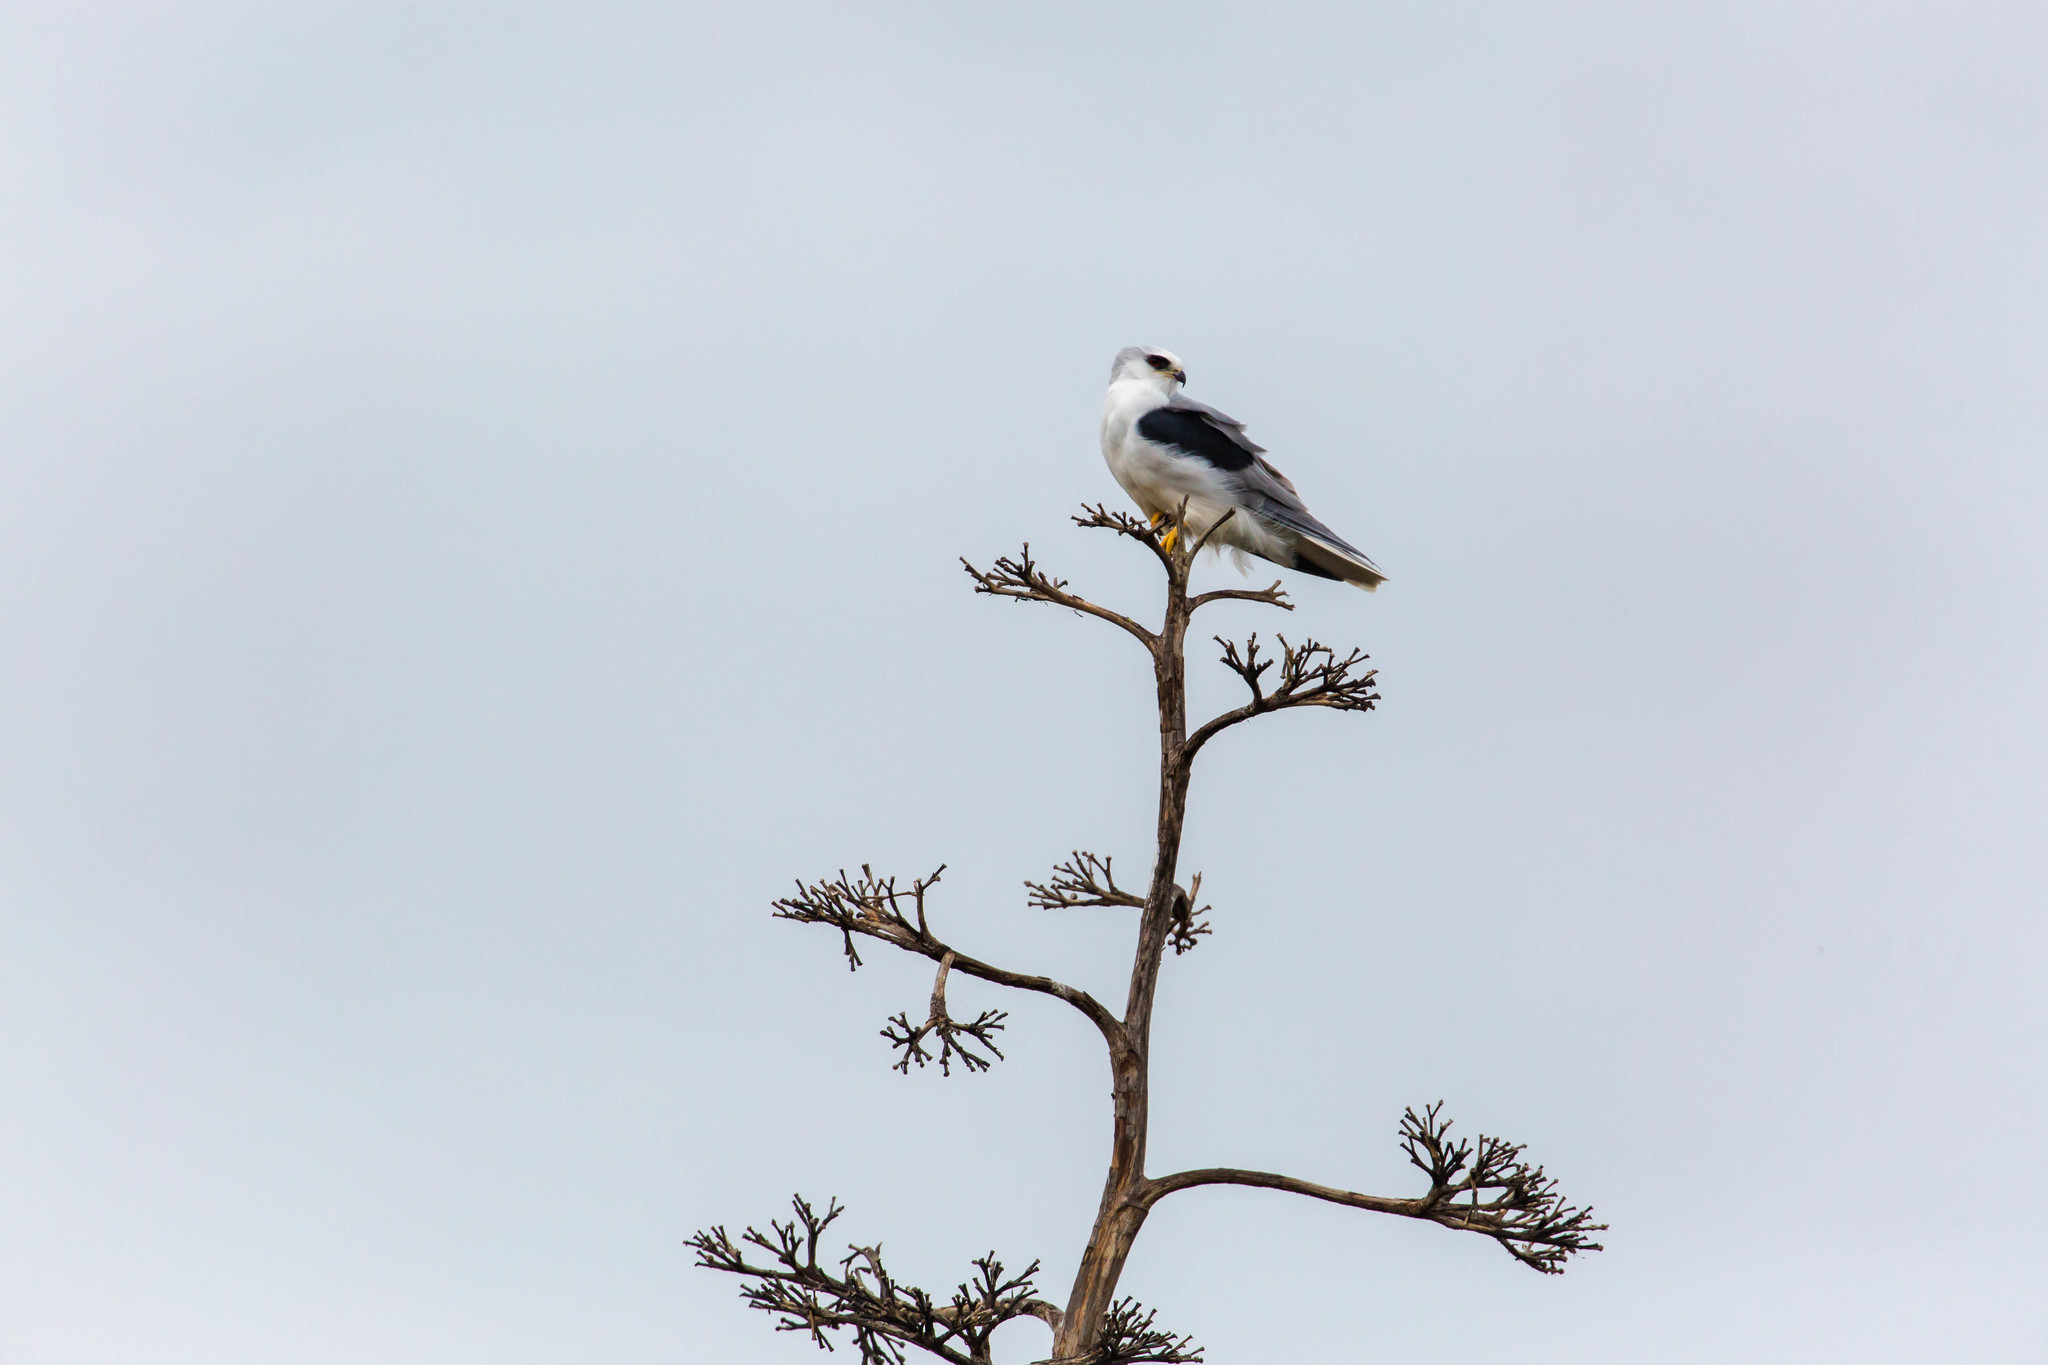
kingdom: Animalia
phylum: Chordata
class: Aves
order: Accipitriformes
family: Accipitridae
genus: Elanus
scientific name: Elanus leucurus
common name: White-tailed kite
